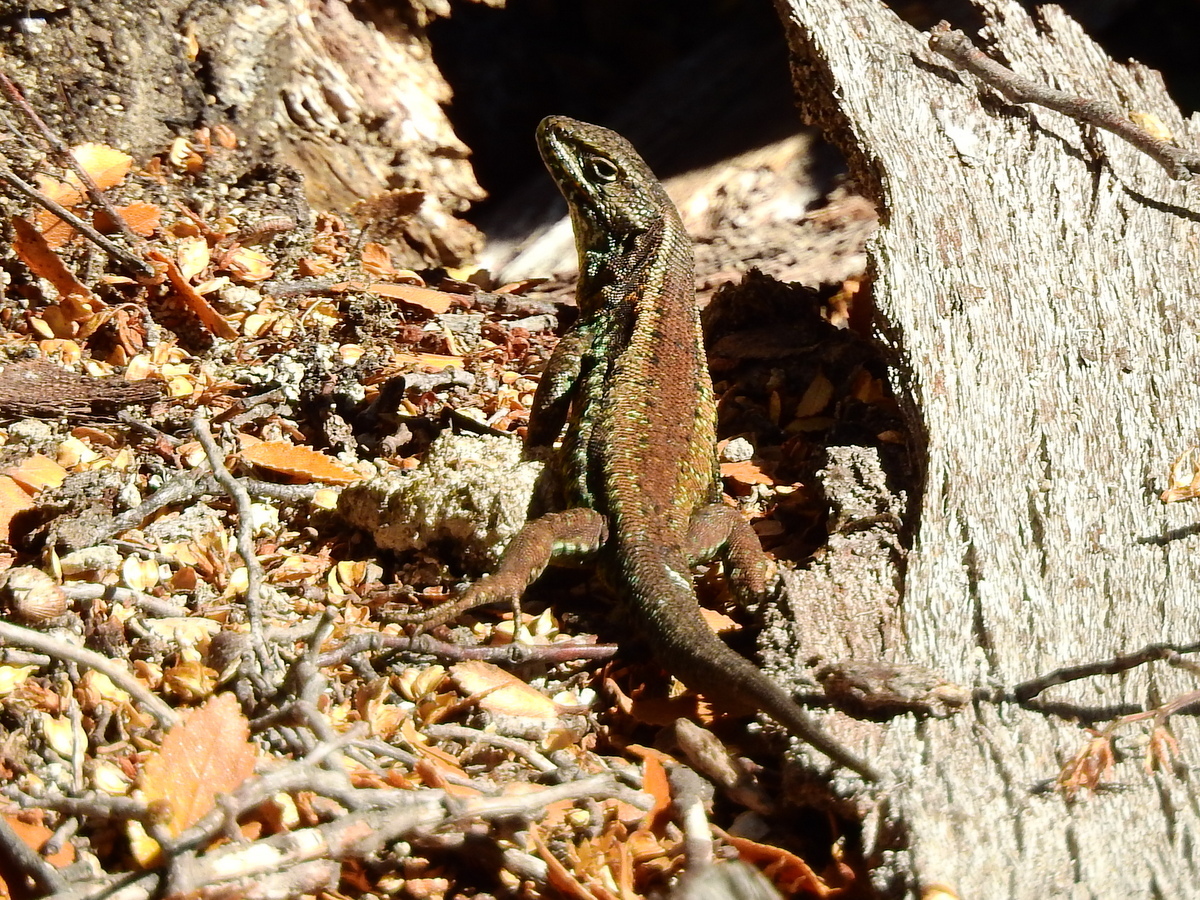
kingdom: Animalia
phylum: Chordata
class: Squamata
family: Liolaemidae
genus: Liolaemus
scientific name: Liolaemus pictus
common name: Painted tree iguana
